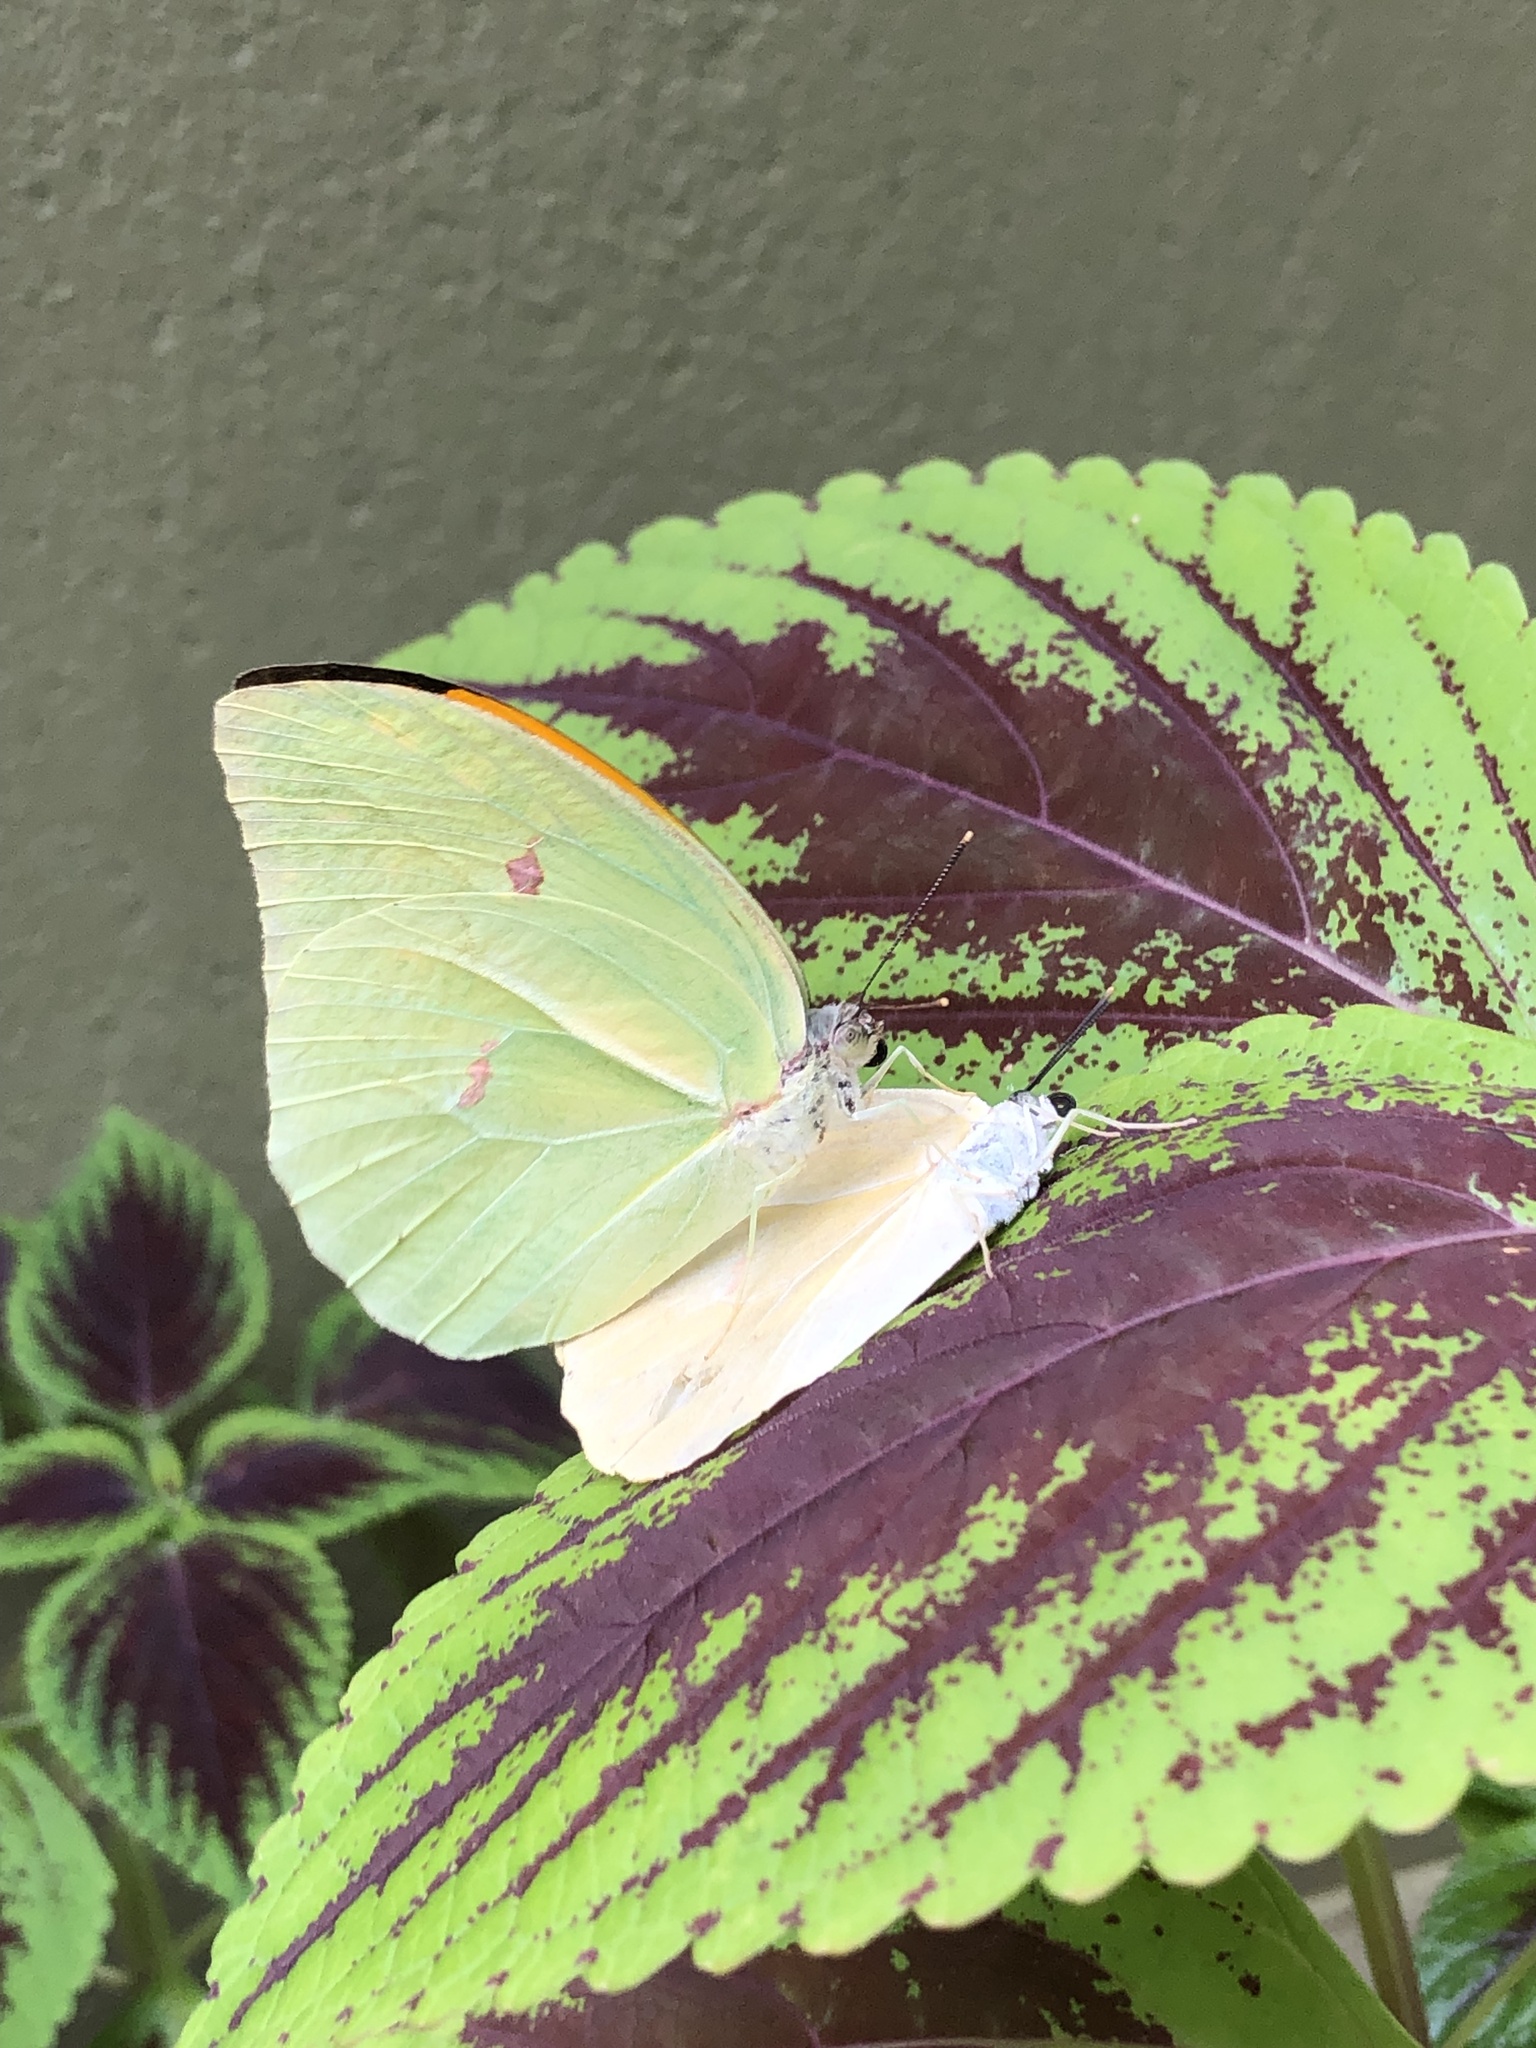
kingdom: Animalia
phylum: Arthropoda
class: Insecta
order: Lepidoptera
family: Pieridae
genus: Anteos
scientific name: Anteos menippe
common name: Orangetip angled-sulphur
